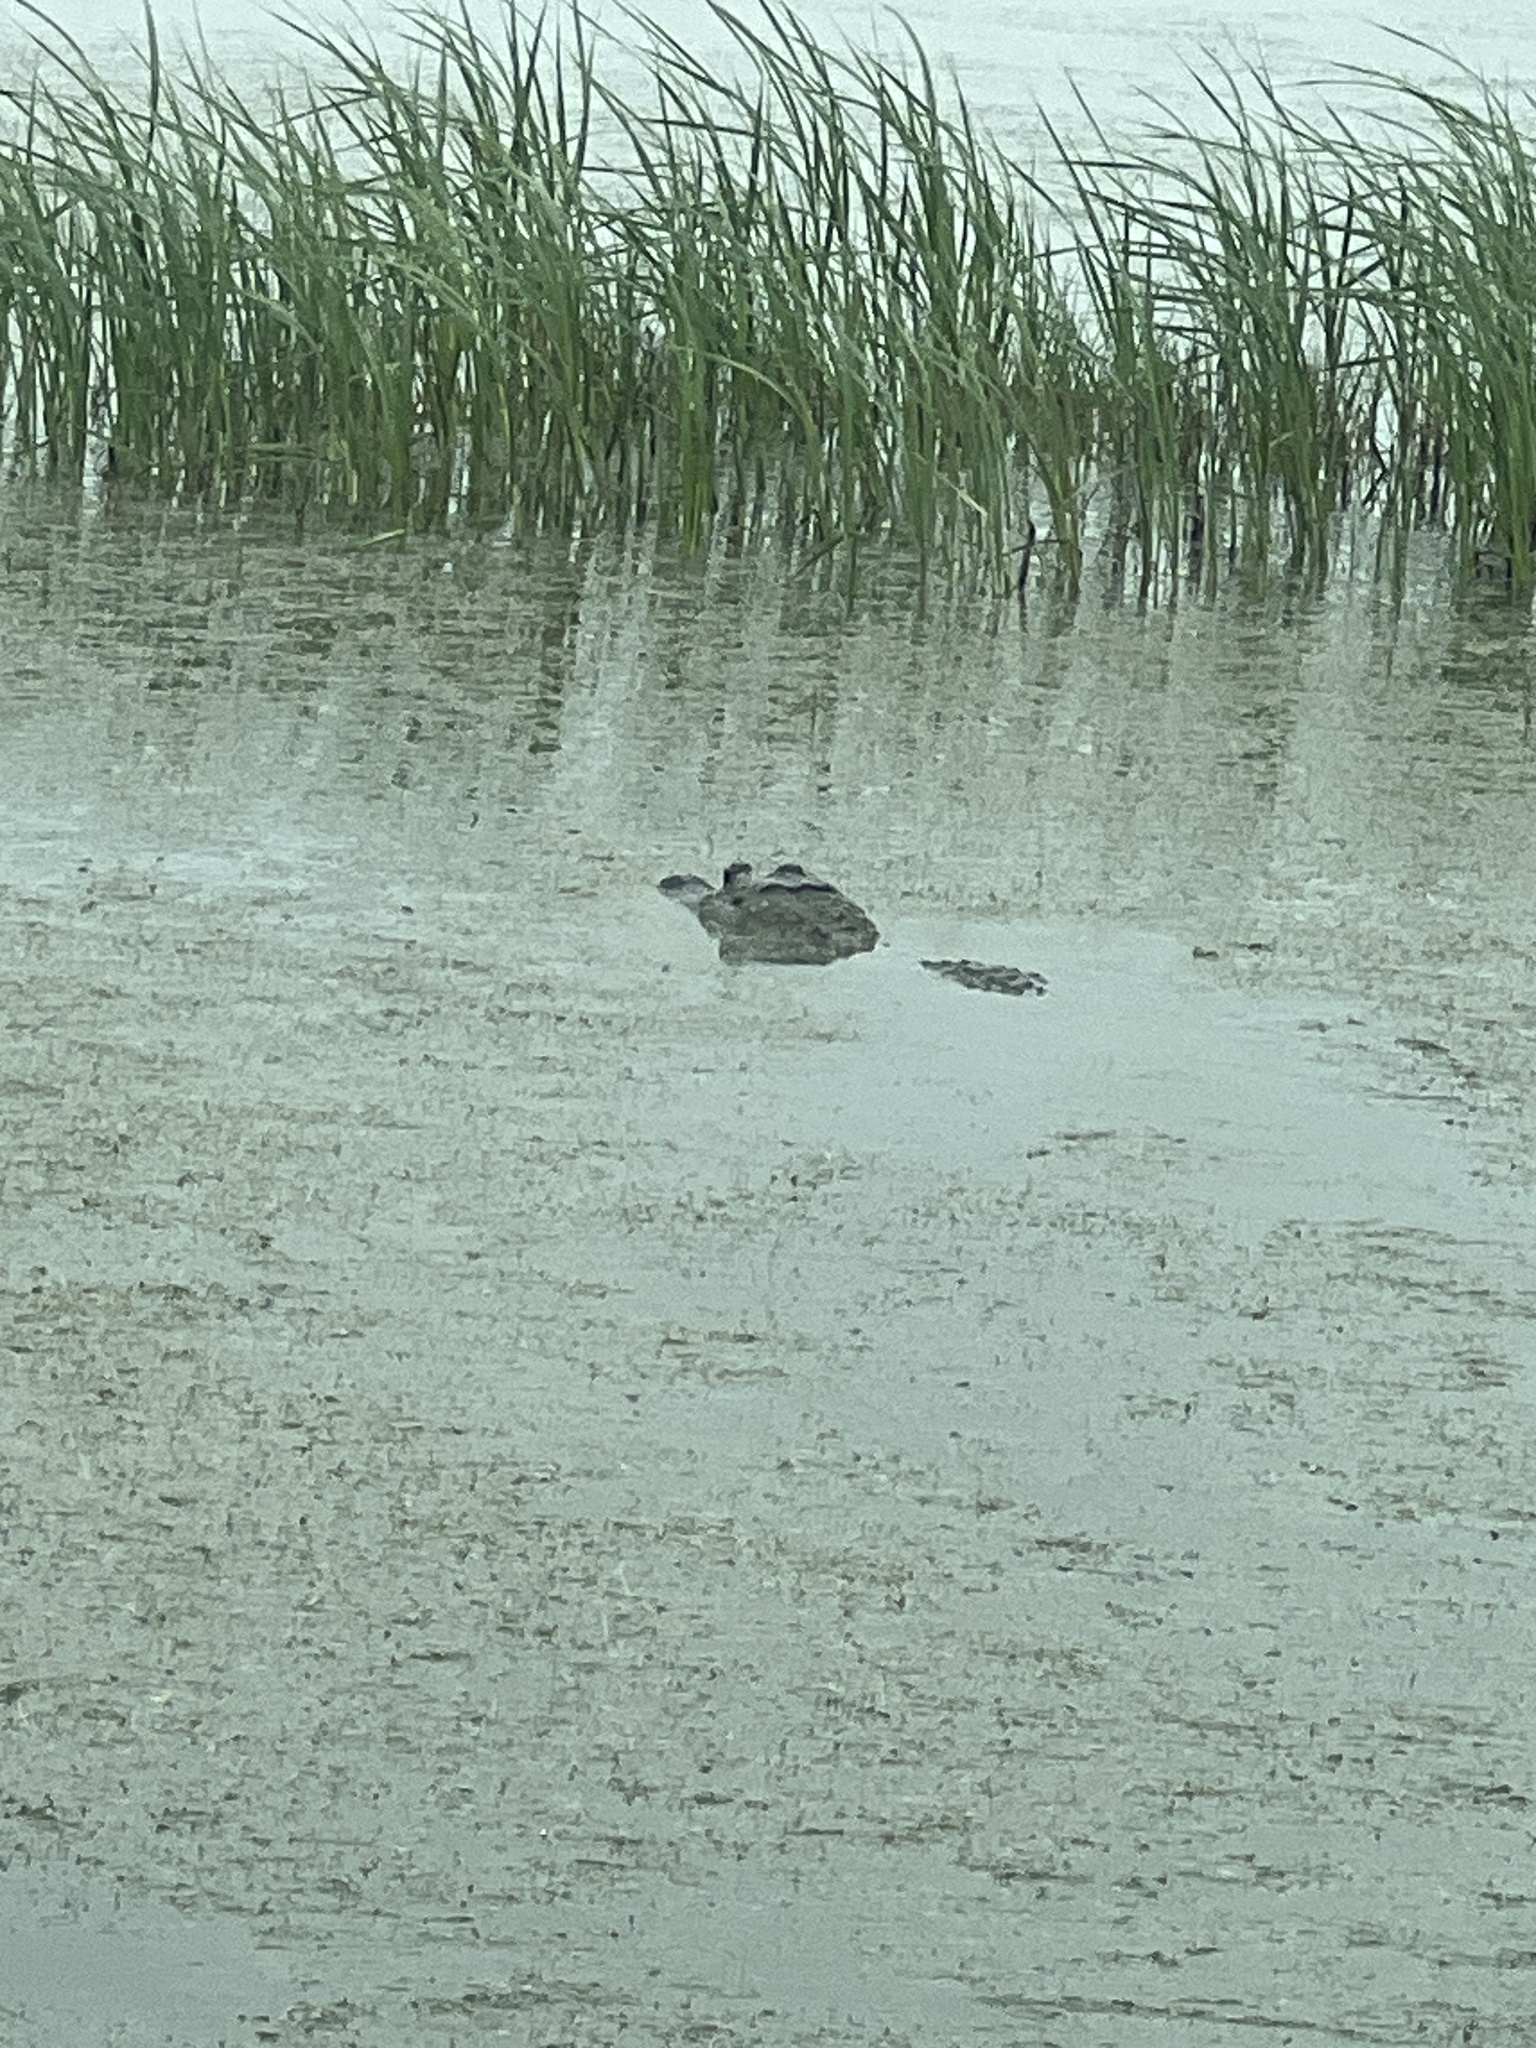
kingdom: Animalia
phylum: Chordata
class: Crocodylia
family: Alligatoridae
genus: Alligator
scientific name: Alligator mississippiensis
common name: American alligator
